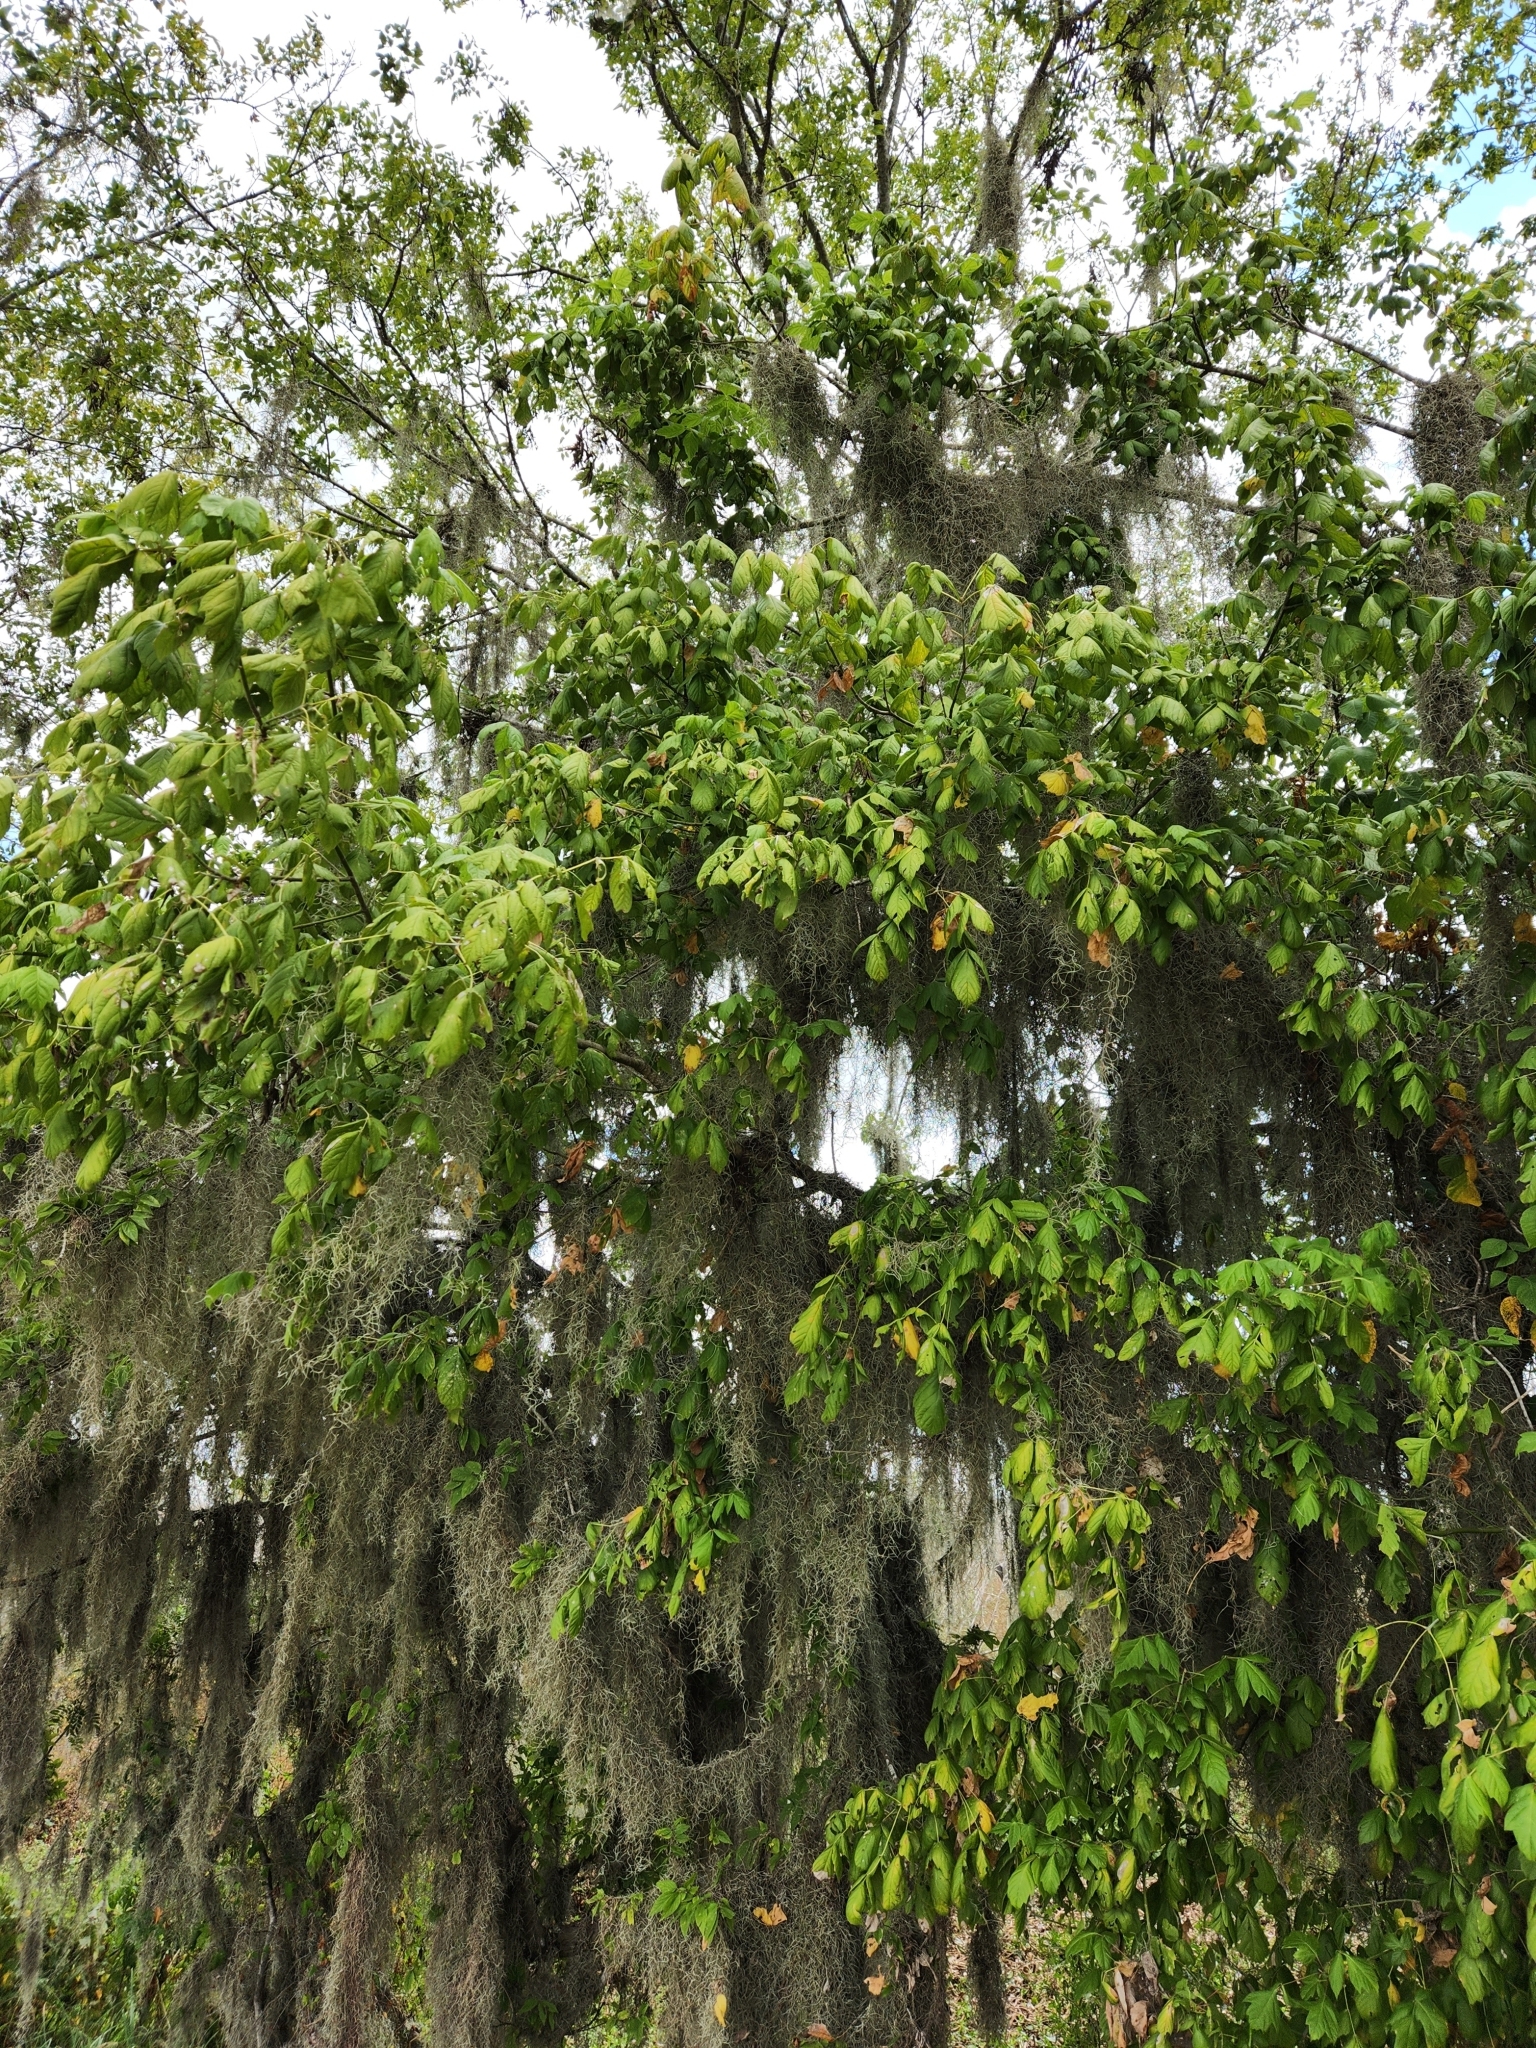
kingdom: Plantae
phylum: Tracheophyta
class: Magnoliopsida
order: Sapindales
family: Sapindaceae
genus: Acer
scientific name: Acer negundo
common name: Ashleaf maple
